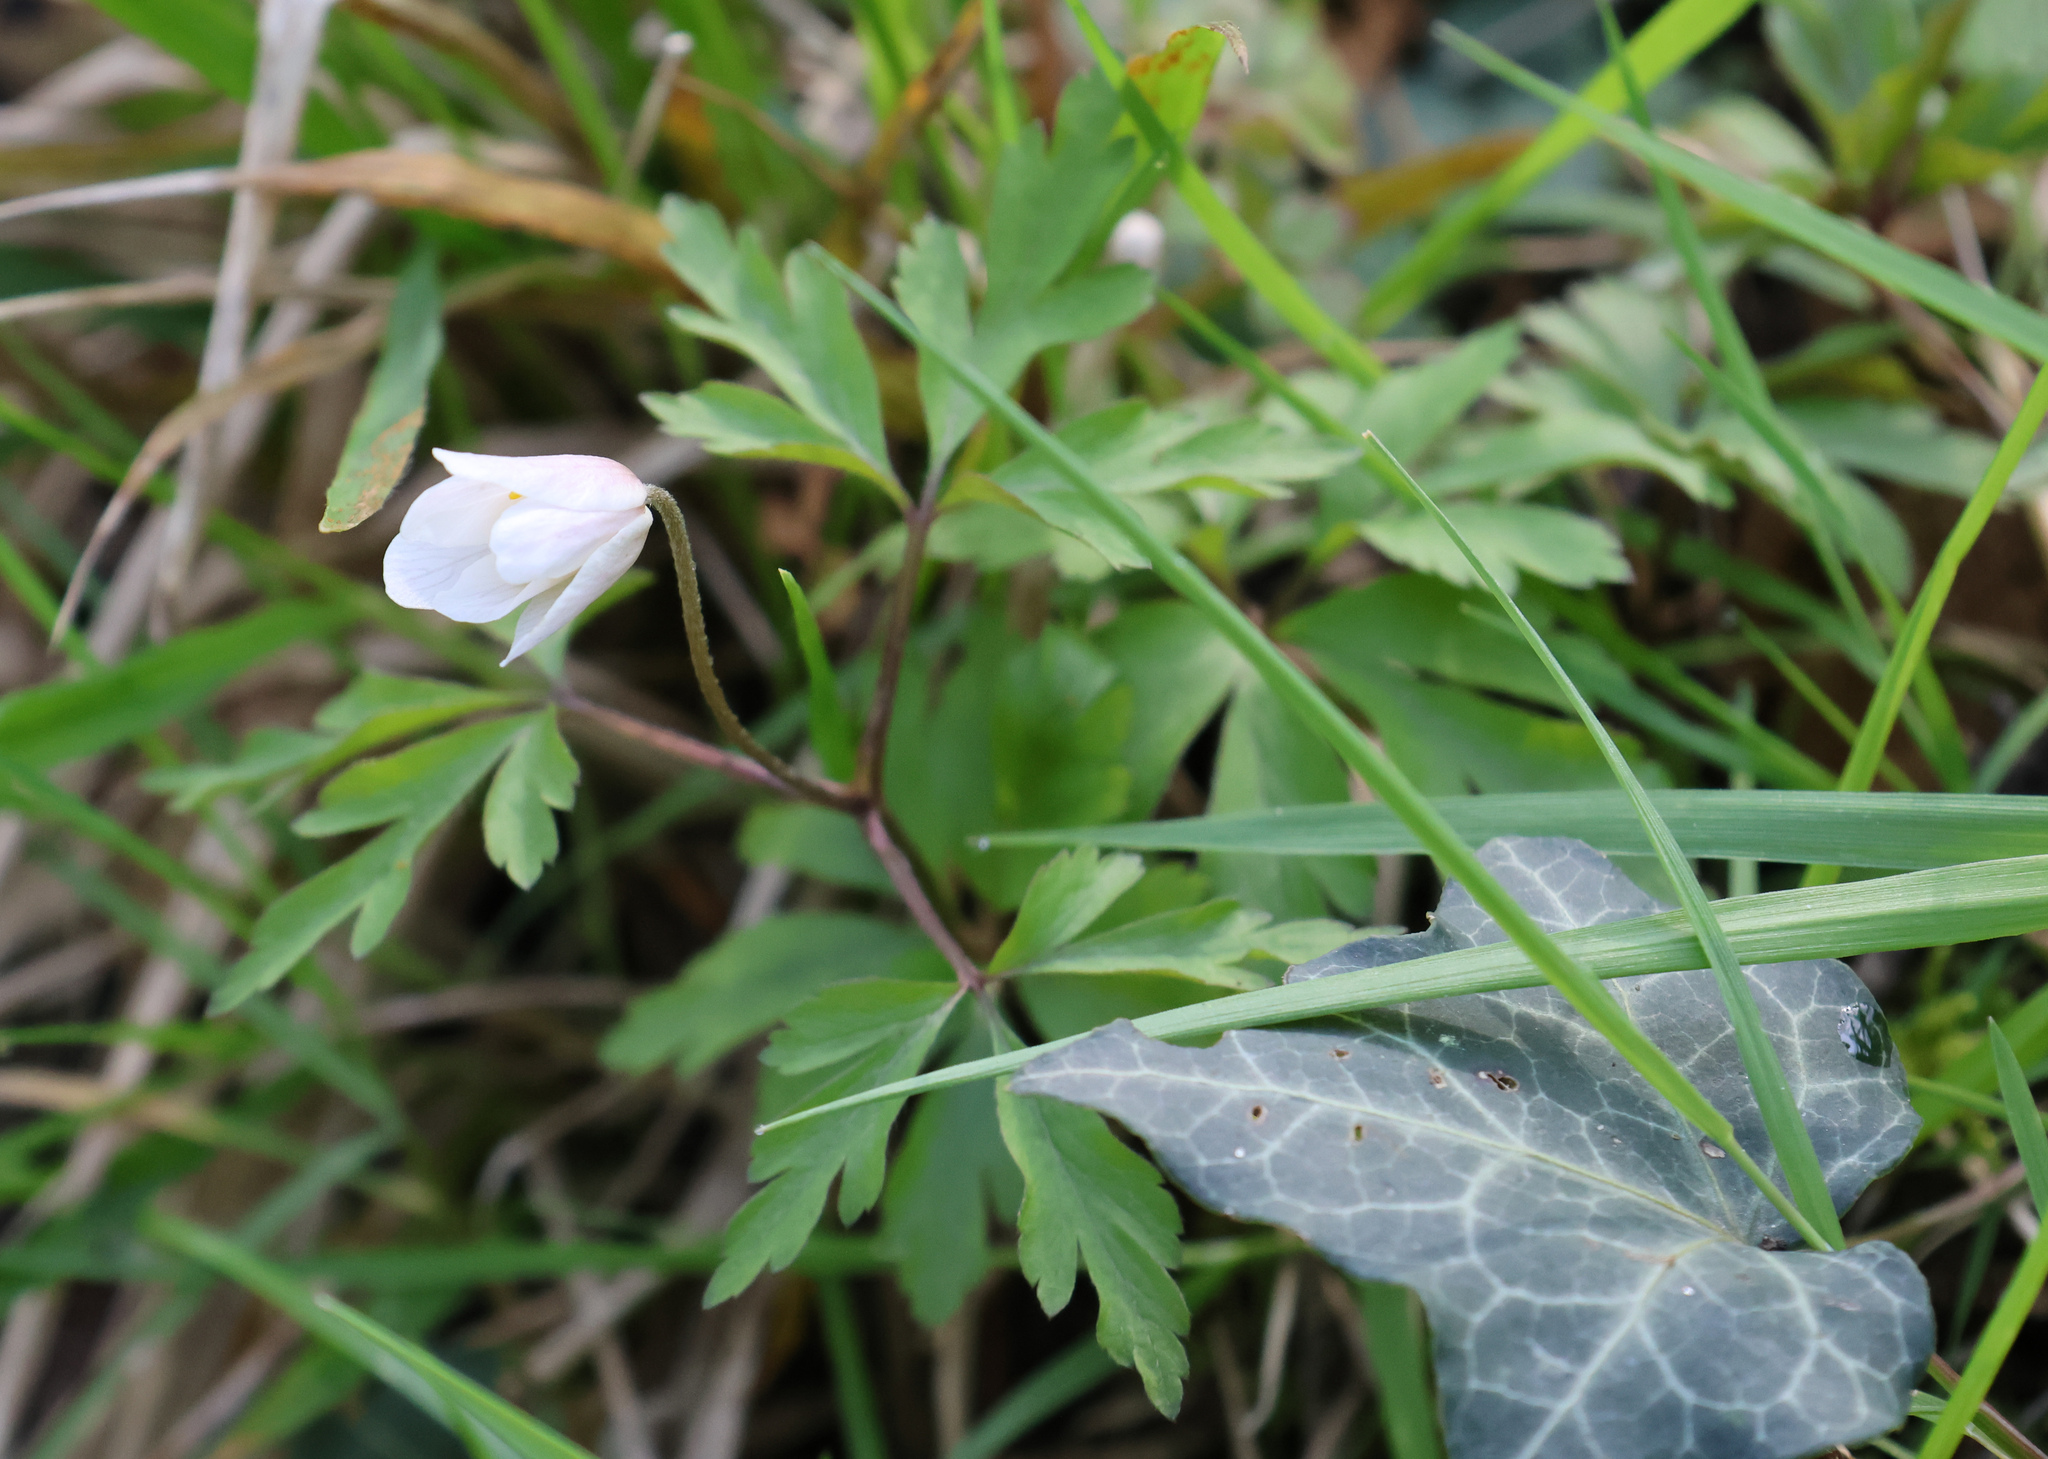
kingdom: Plantae
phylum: Tracheophyta
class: Magnoliopsida
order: Ranunculales
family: Ranunculaceae
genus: Anemone
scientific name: Anemone nemorosa
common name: Wood anemone
